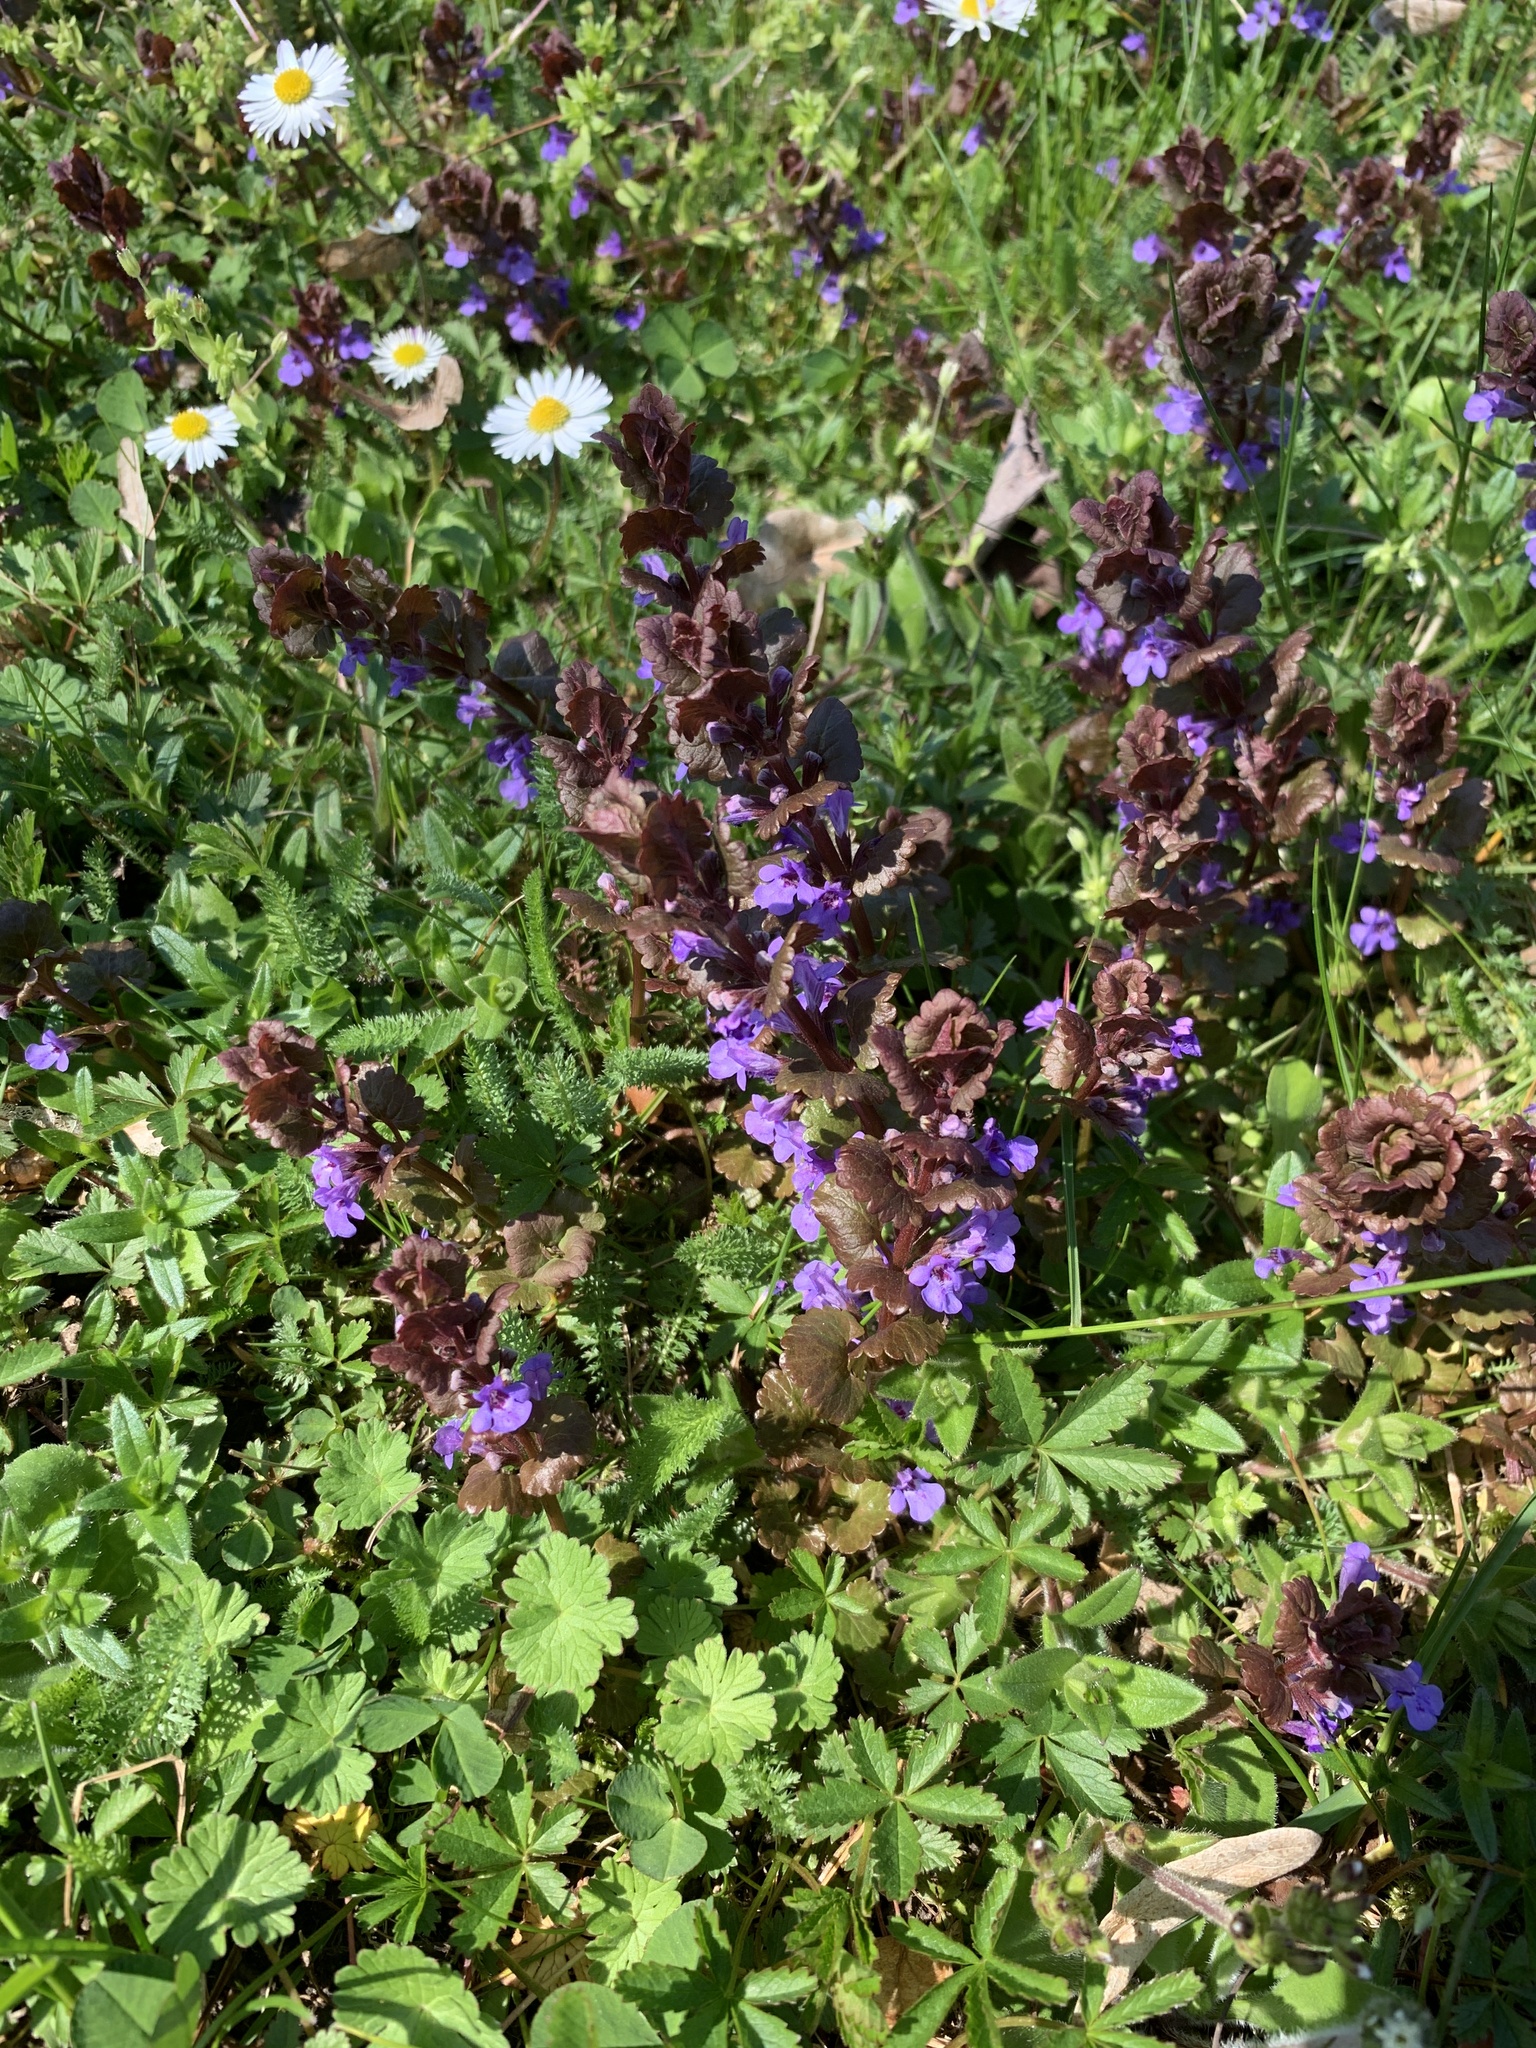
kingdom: Plantae
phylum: Tracheophyta
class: Magnoliopsida
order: Lamiales
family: Lamiaceae
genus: Glechoma
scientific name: Glechoma hederacea
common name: Ground ivy
